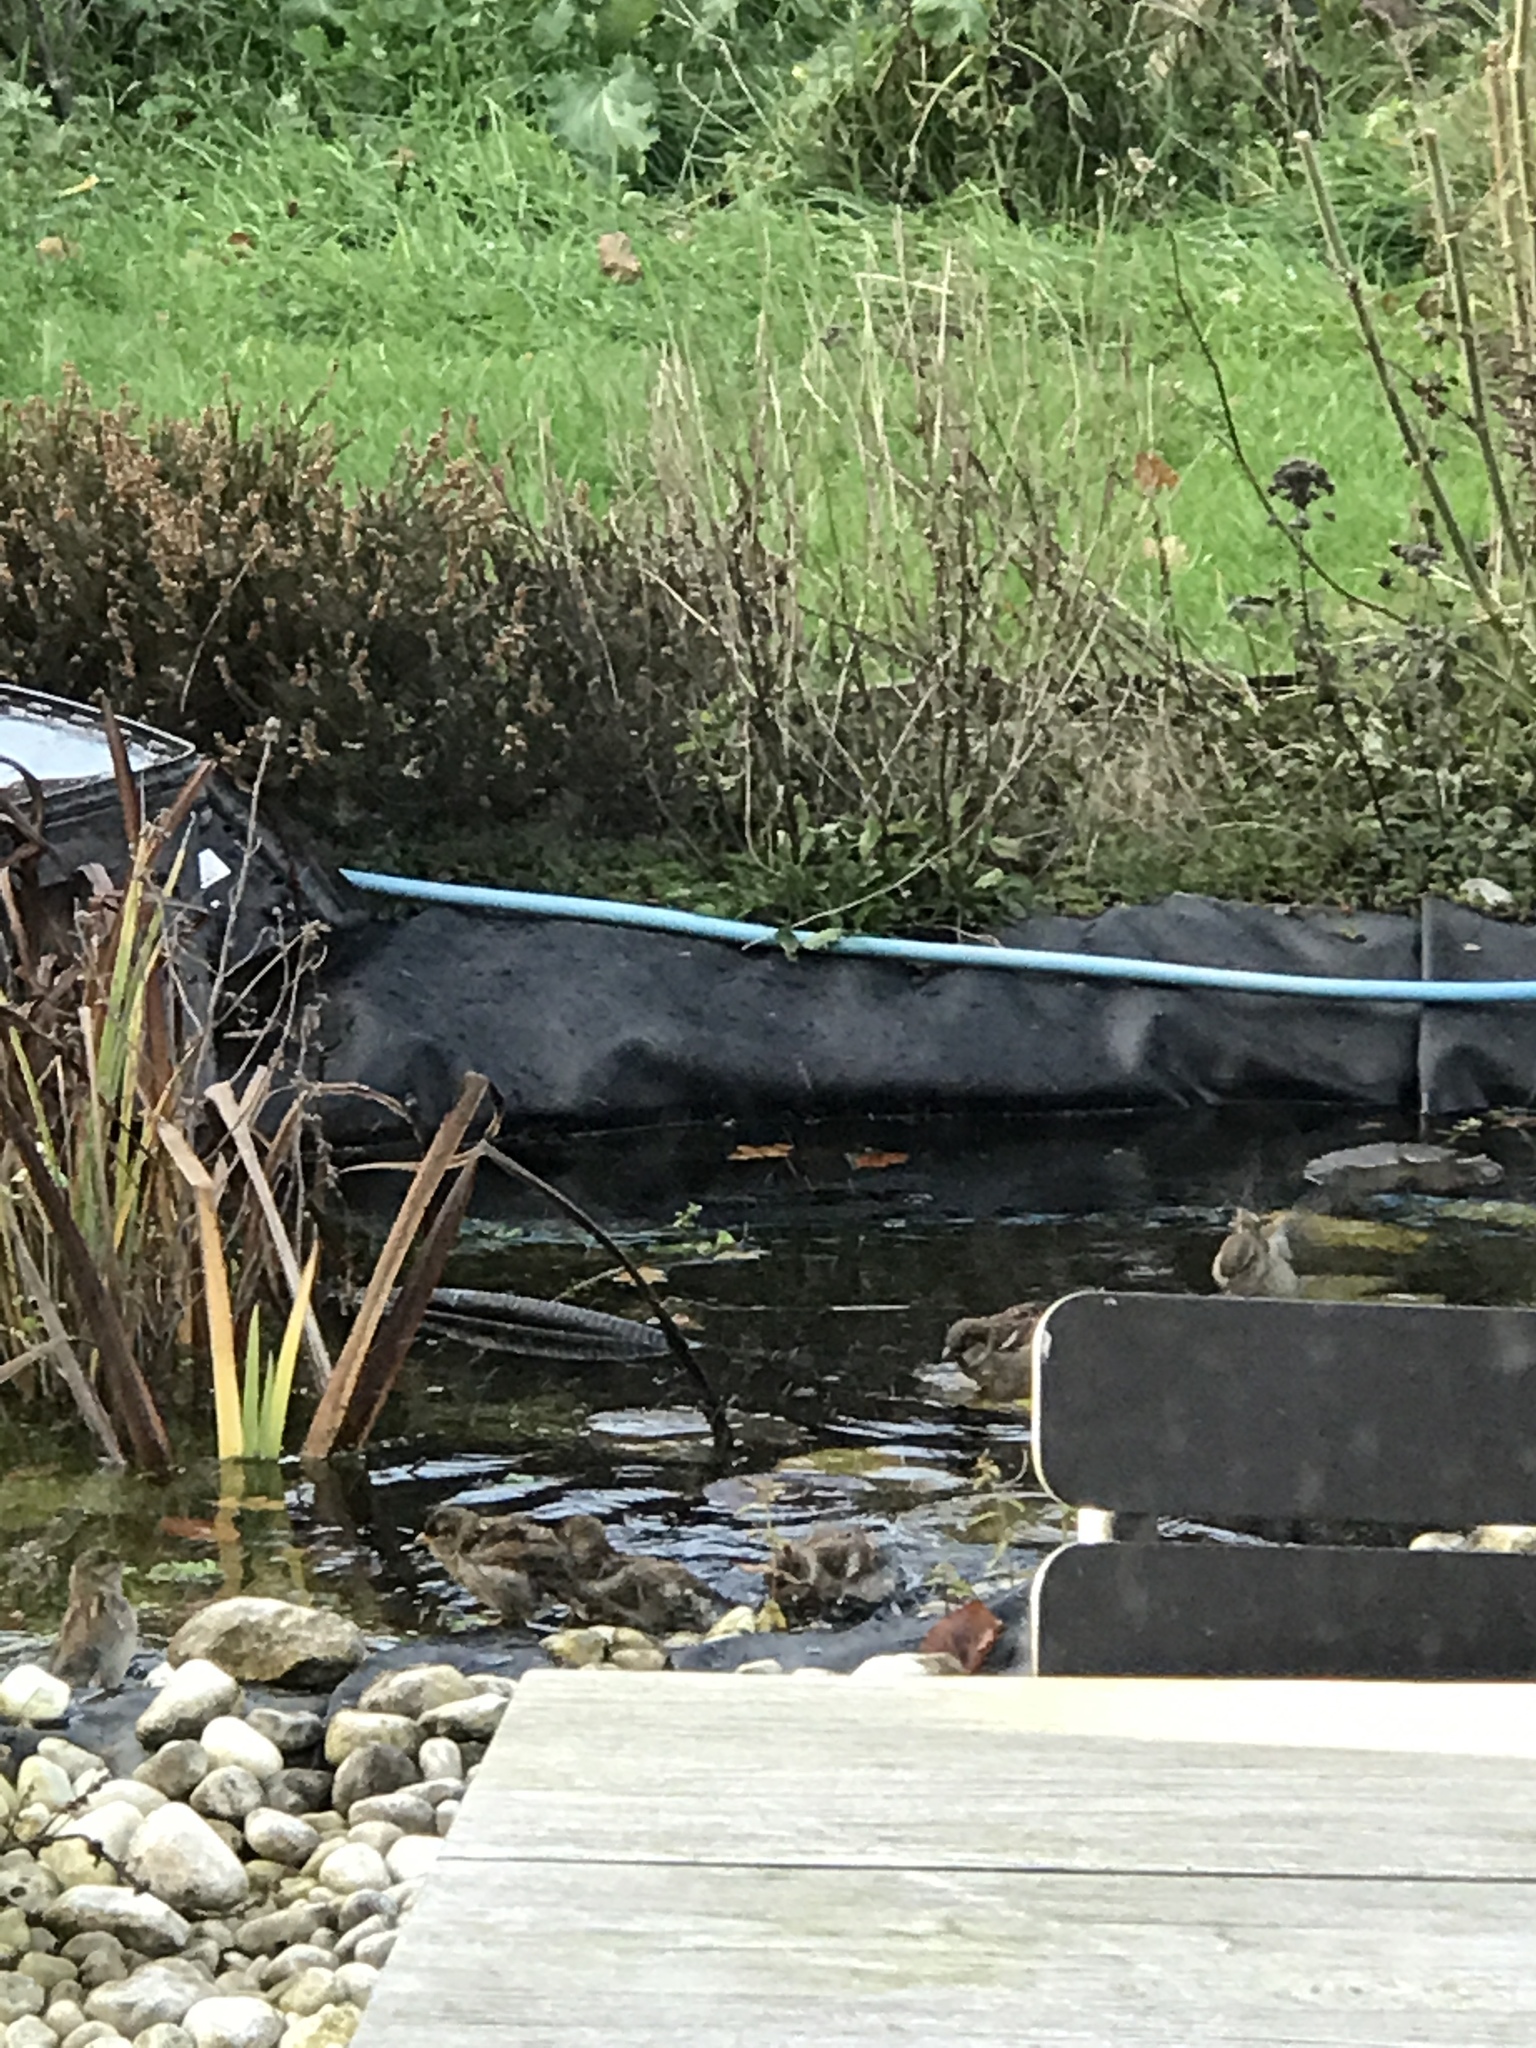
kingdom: Animalia
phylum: Chordata
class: Aves
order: Passeriformes
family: Passeridae
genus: Passer
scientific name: Passer domesticus
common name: House sparrow
